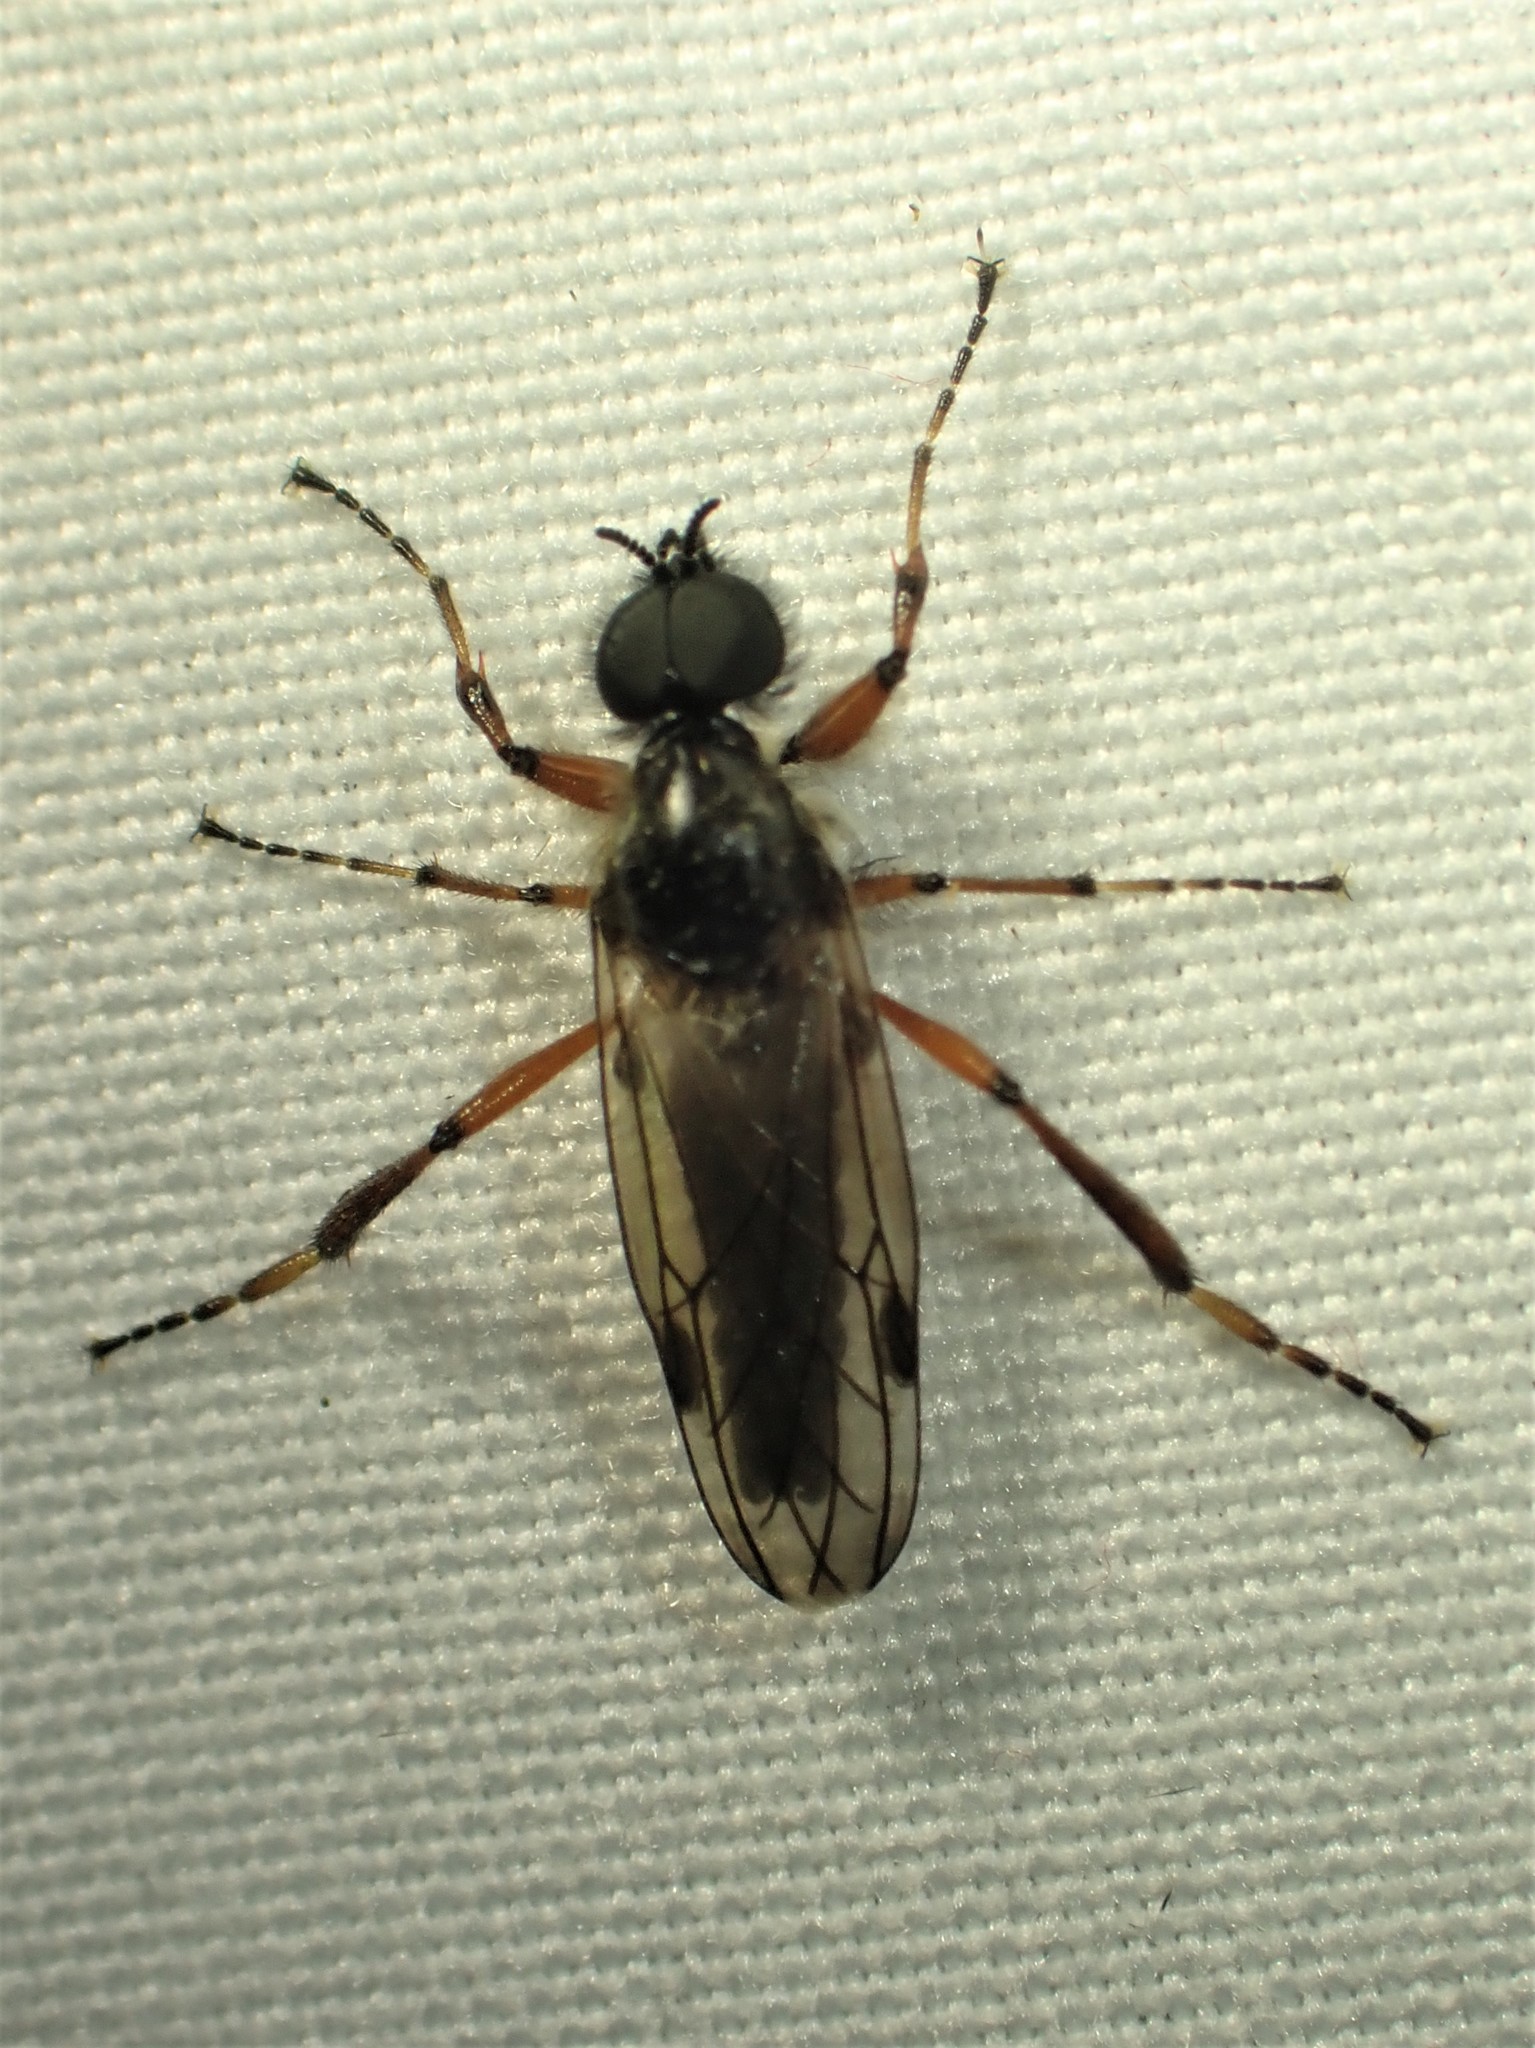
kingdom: Animalia
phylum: Arthropoda
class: Insecta
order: Diptera
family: Bibionidae
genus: Bibio
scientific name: Bibio xanthopus
